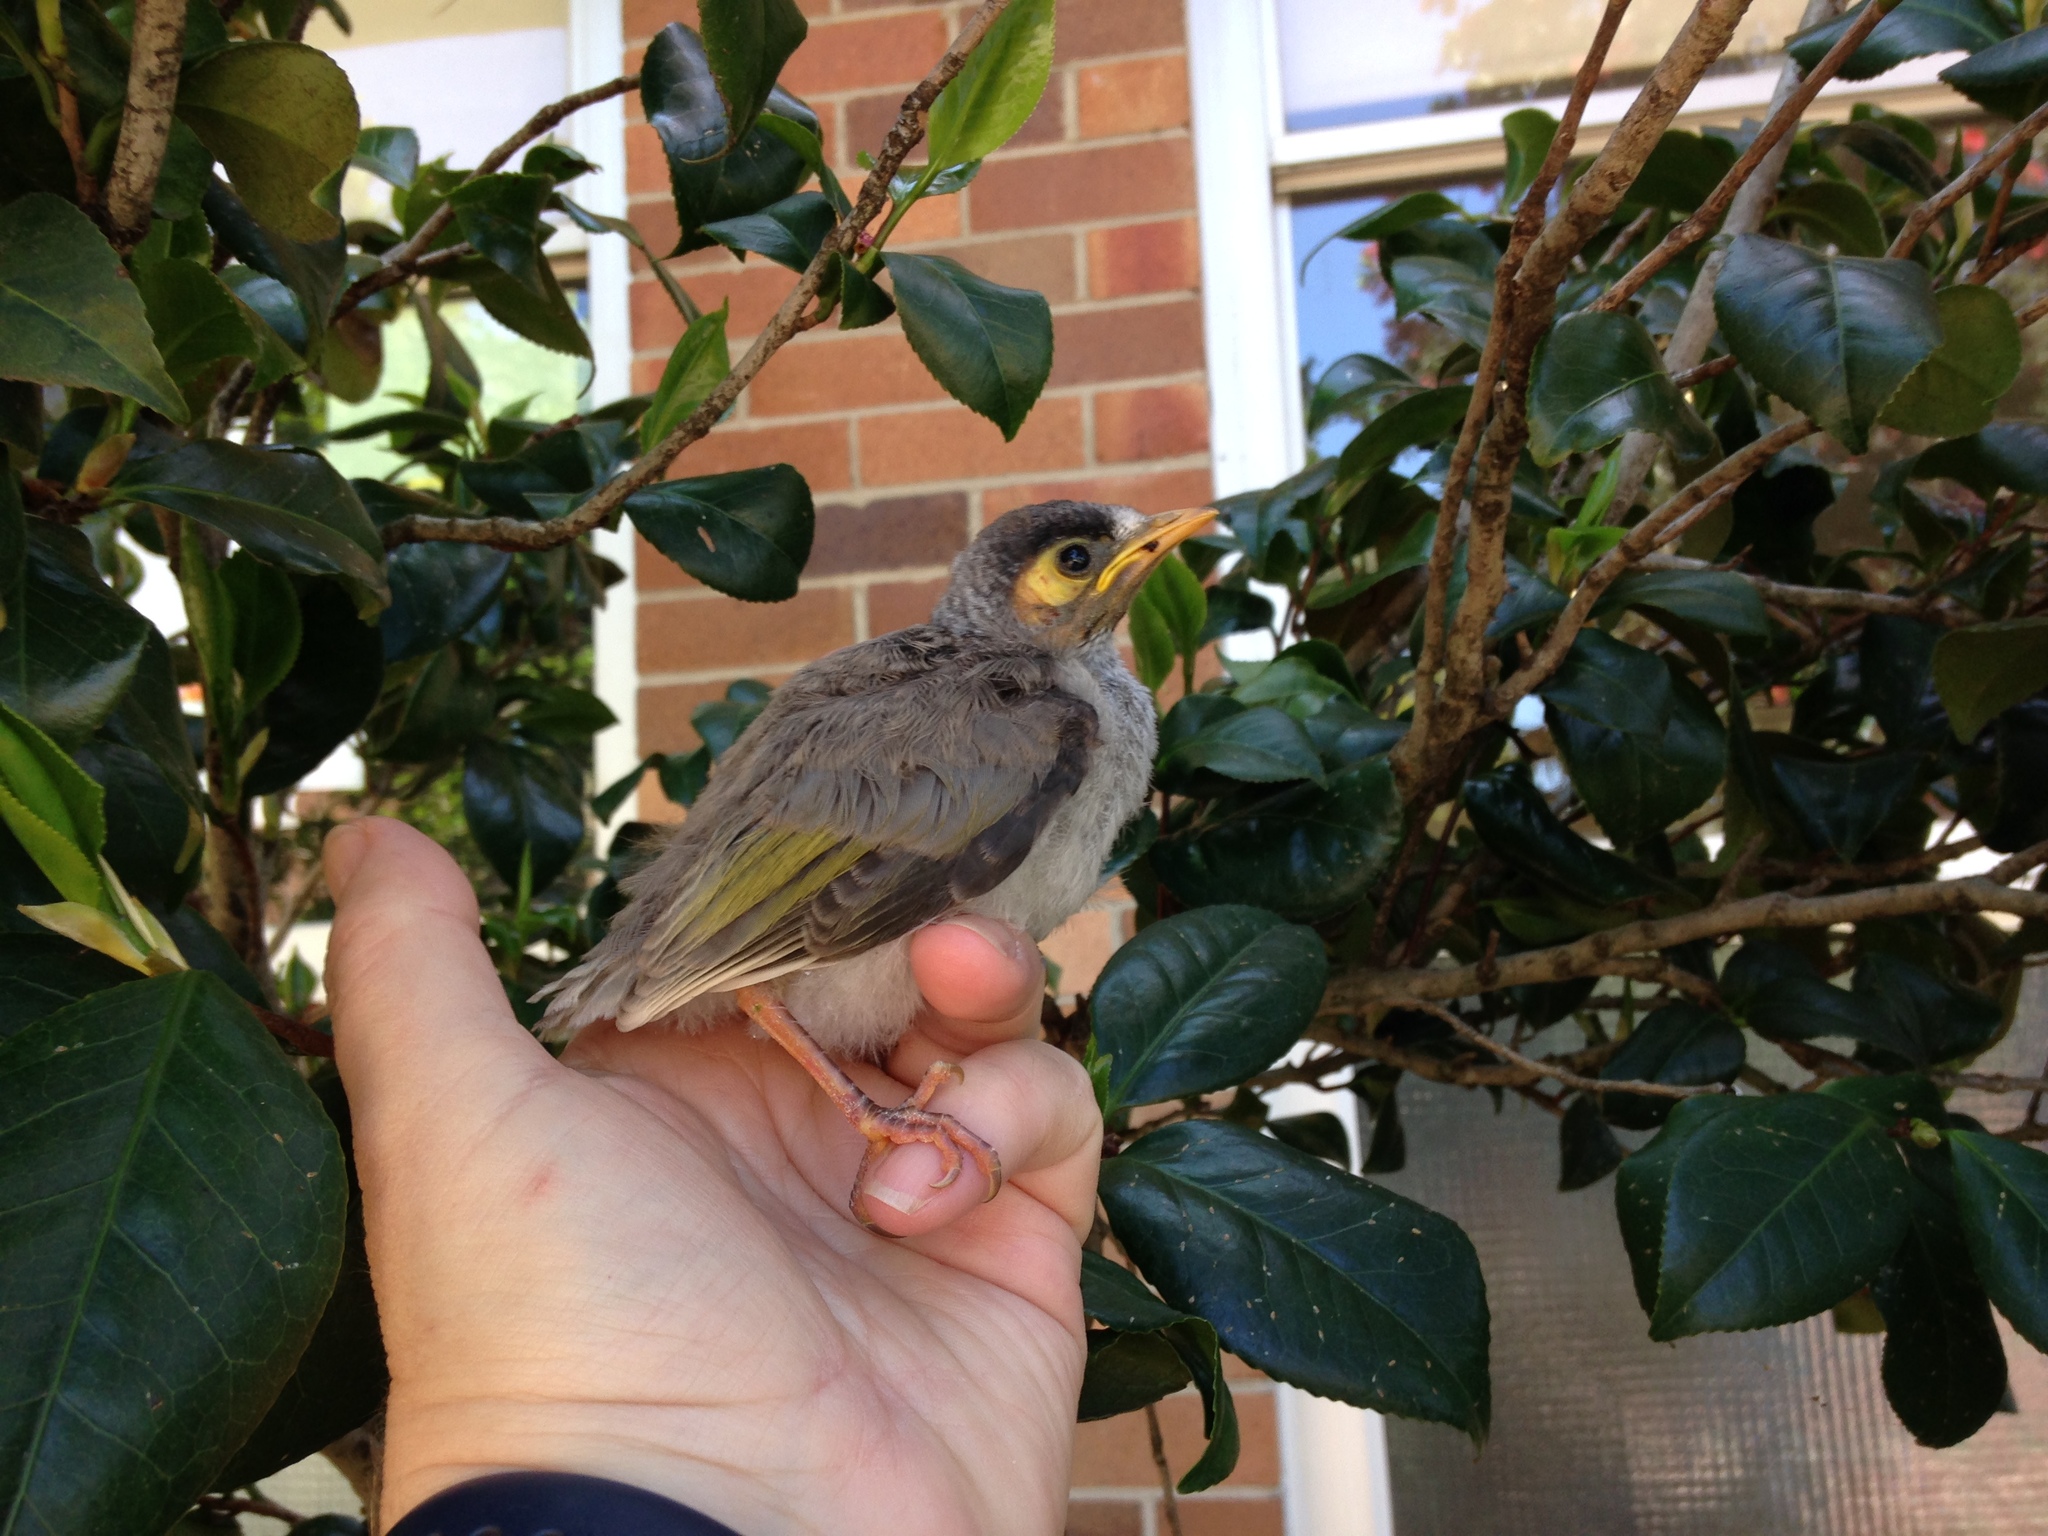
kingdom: Animalia
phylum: Chordata
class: Aves
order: Passeriformes
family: Meliphagidae
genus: Manorina
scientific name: Manorina melanocephala
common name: Noisy miner
